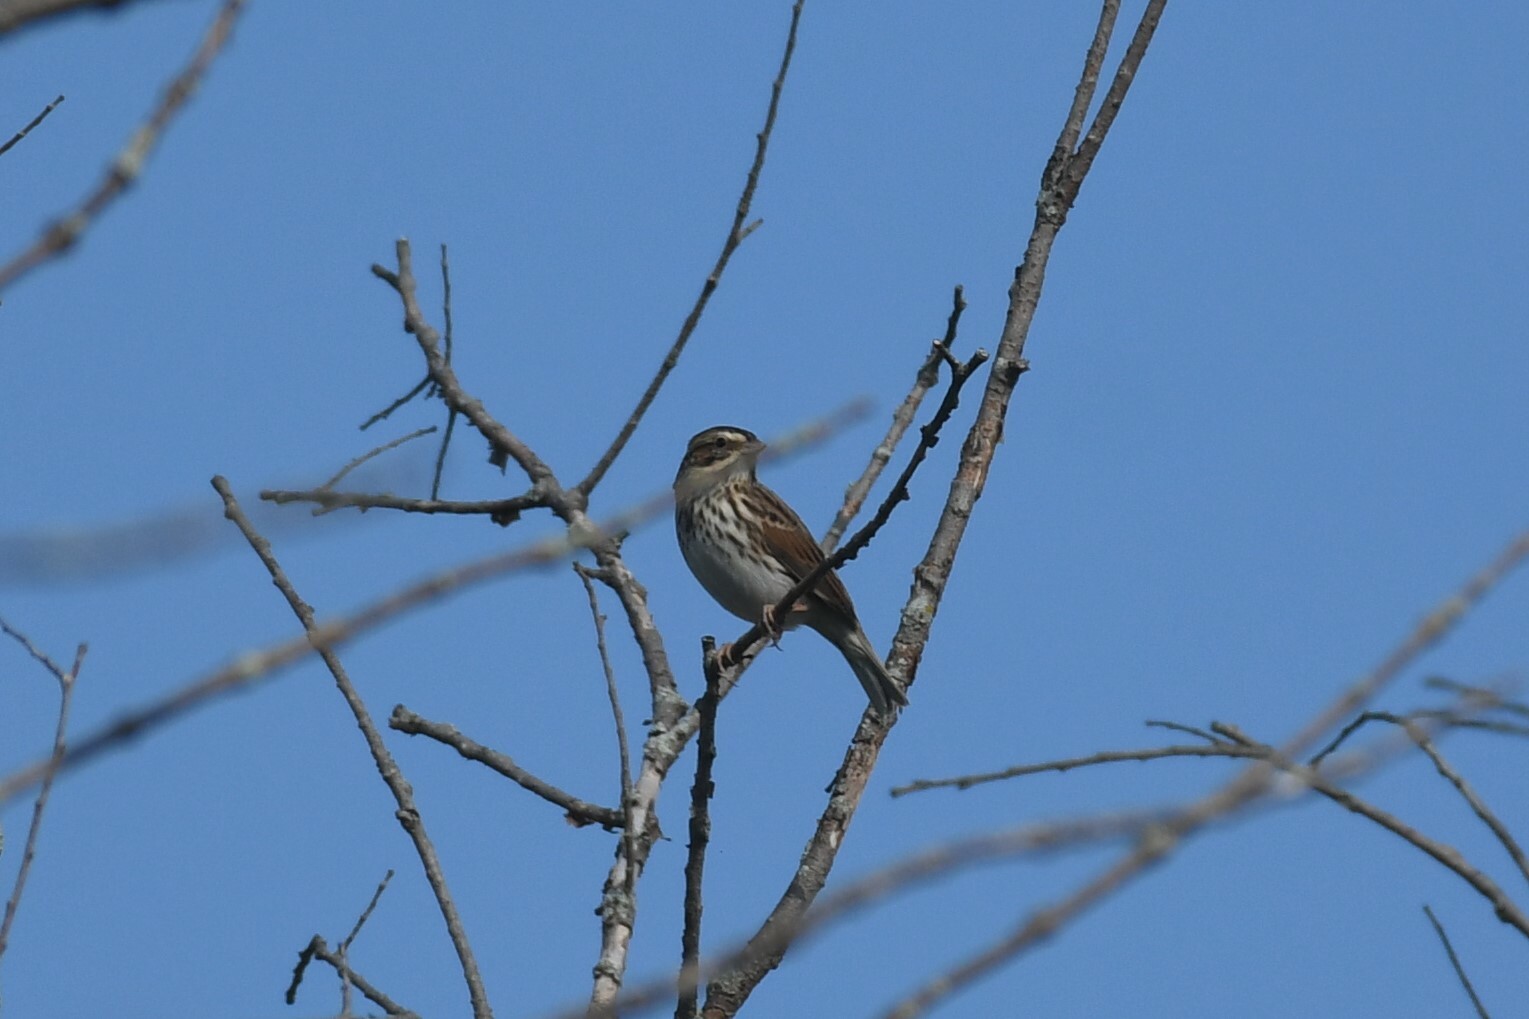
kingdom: Animalia
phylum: Chordata
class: Aves
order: Passeriformes
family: Passerellidae
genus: Passerculus
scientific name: Passerculus sandwichensis
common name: Savannah sparrow
